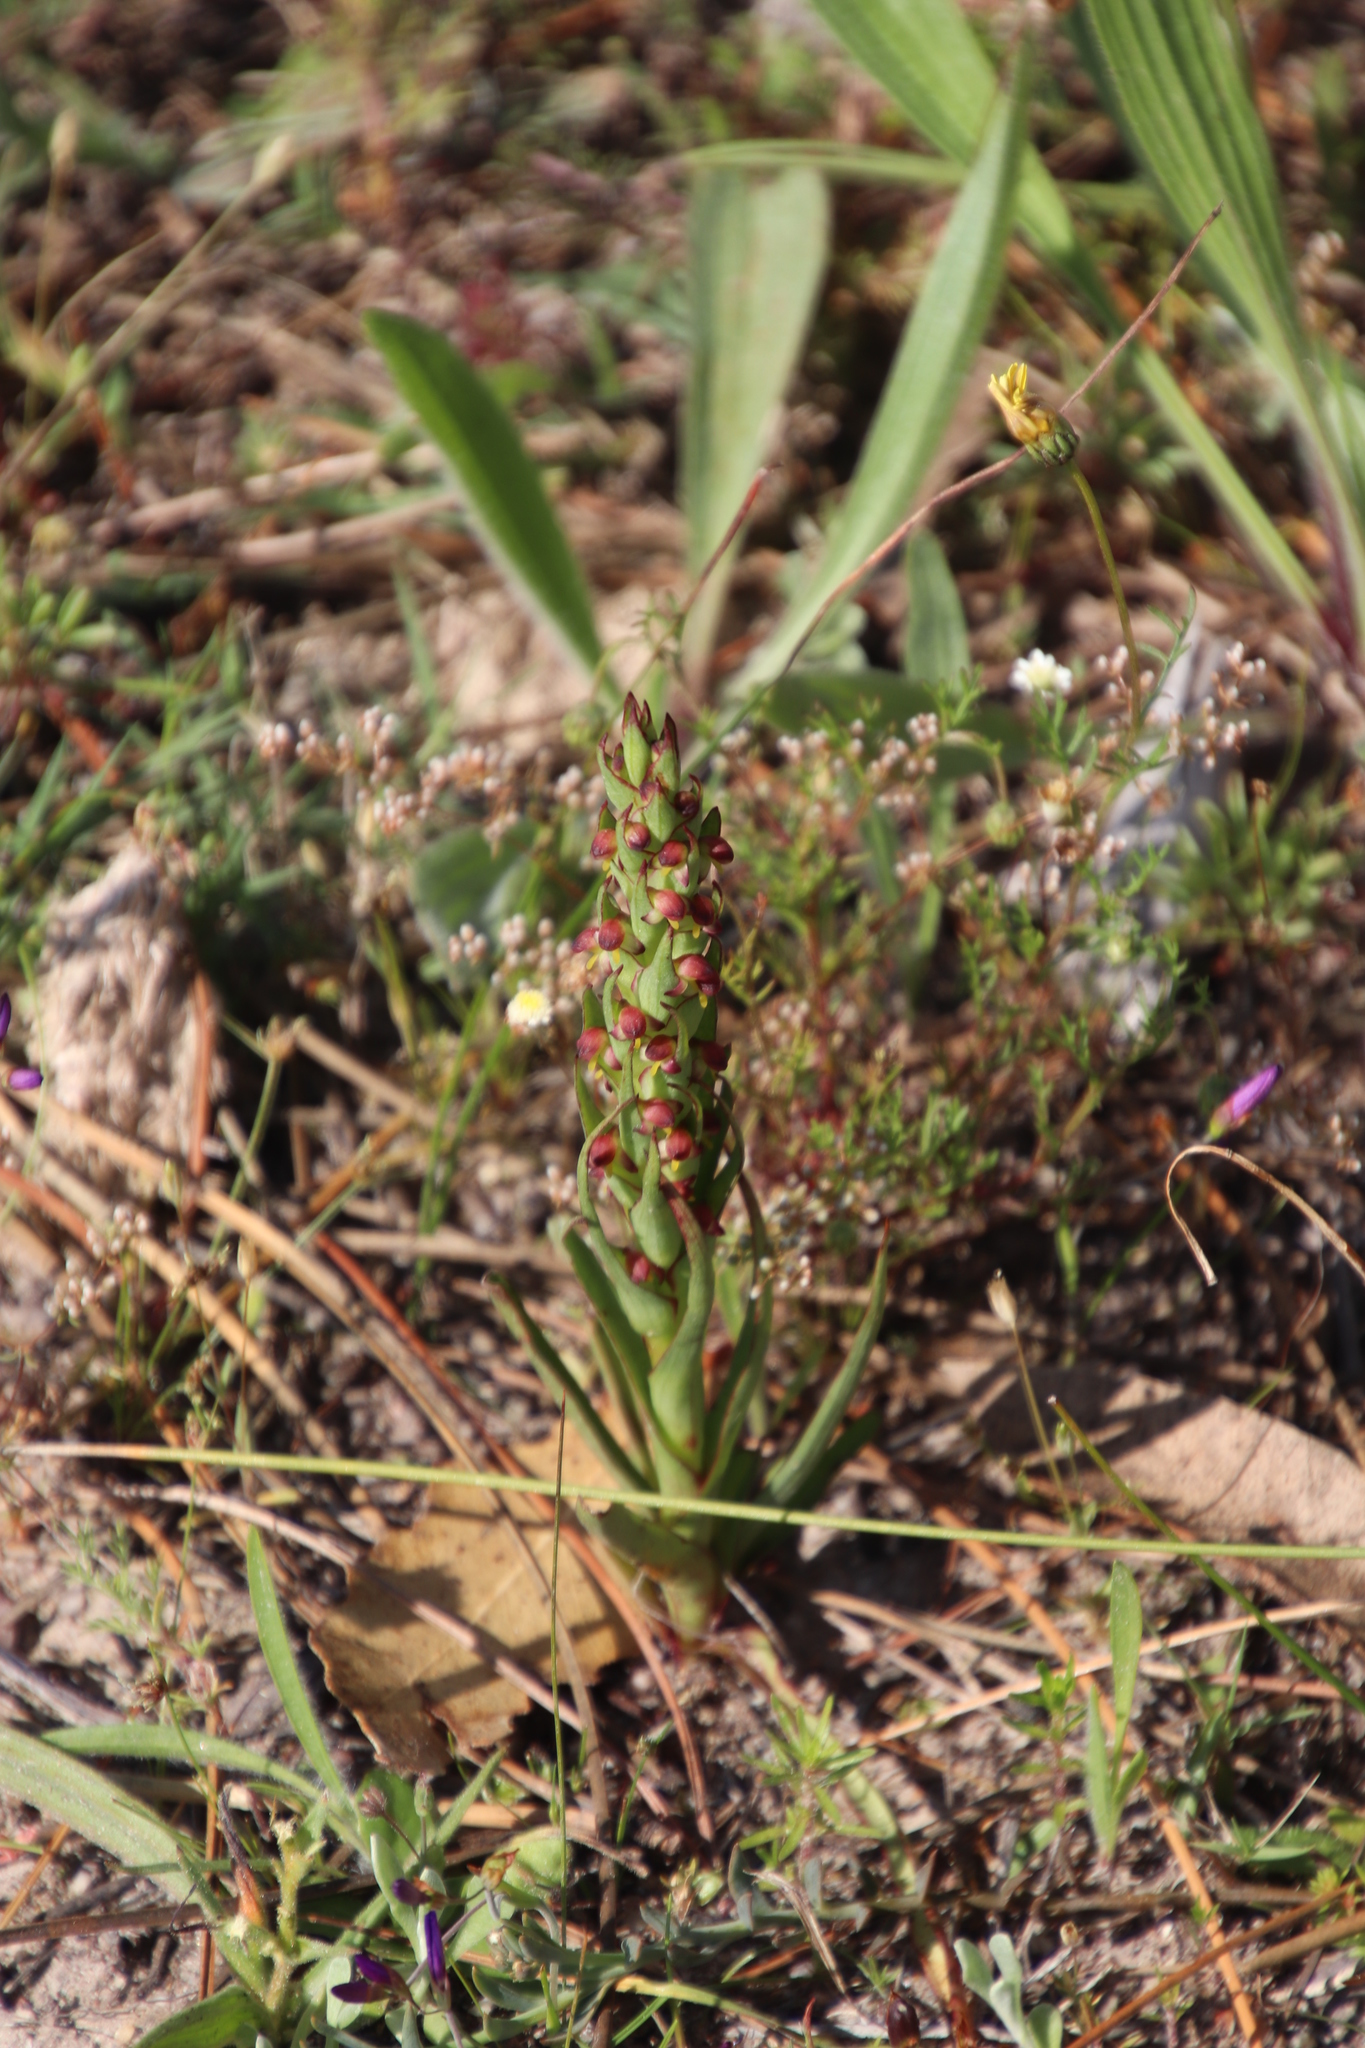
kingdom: Plantae
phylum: Tracheophyta
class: Liliopsida
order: Asparagales
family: Orchidaceae
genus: Disa
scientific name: Disa bracteata
